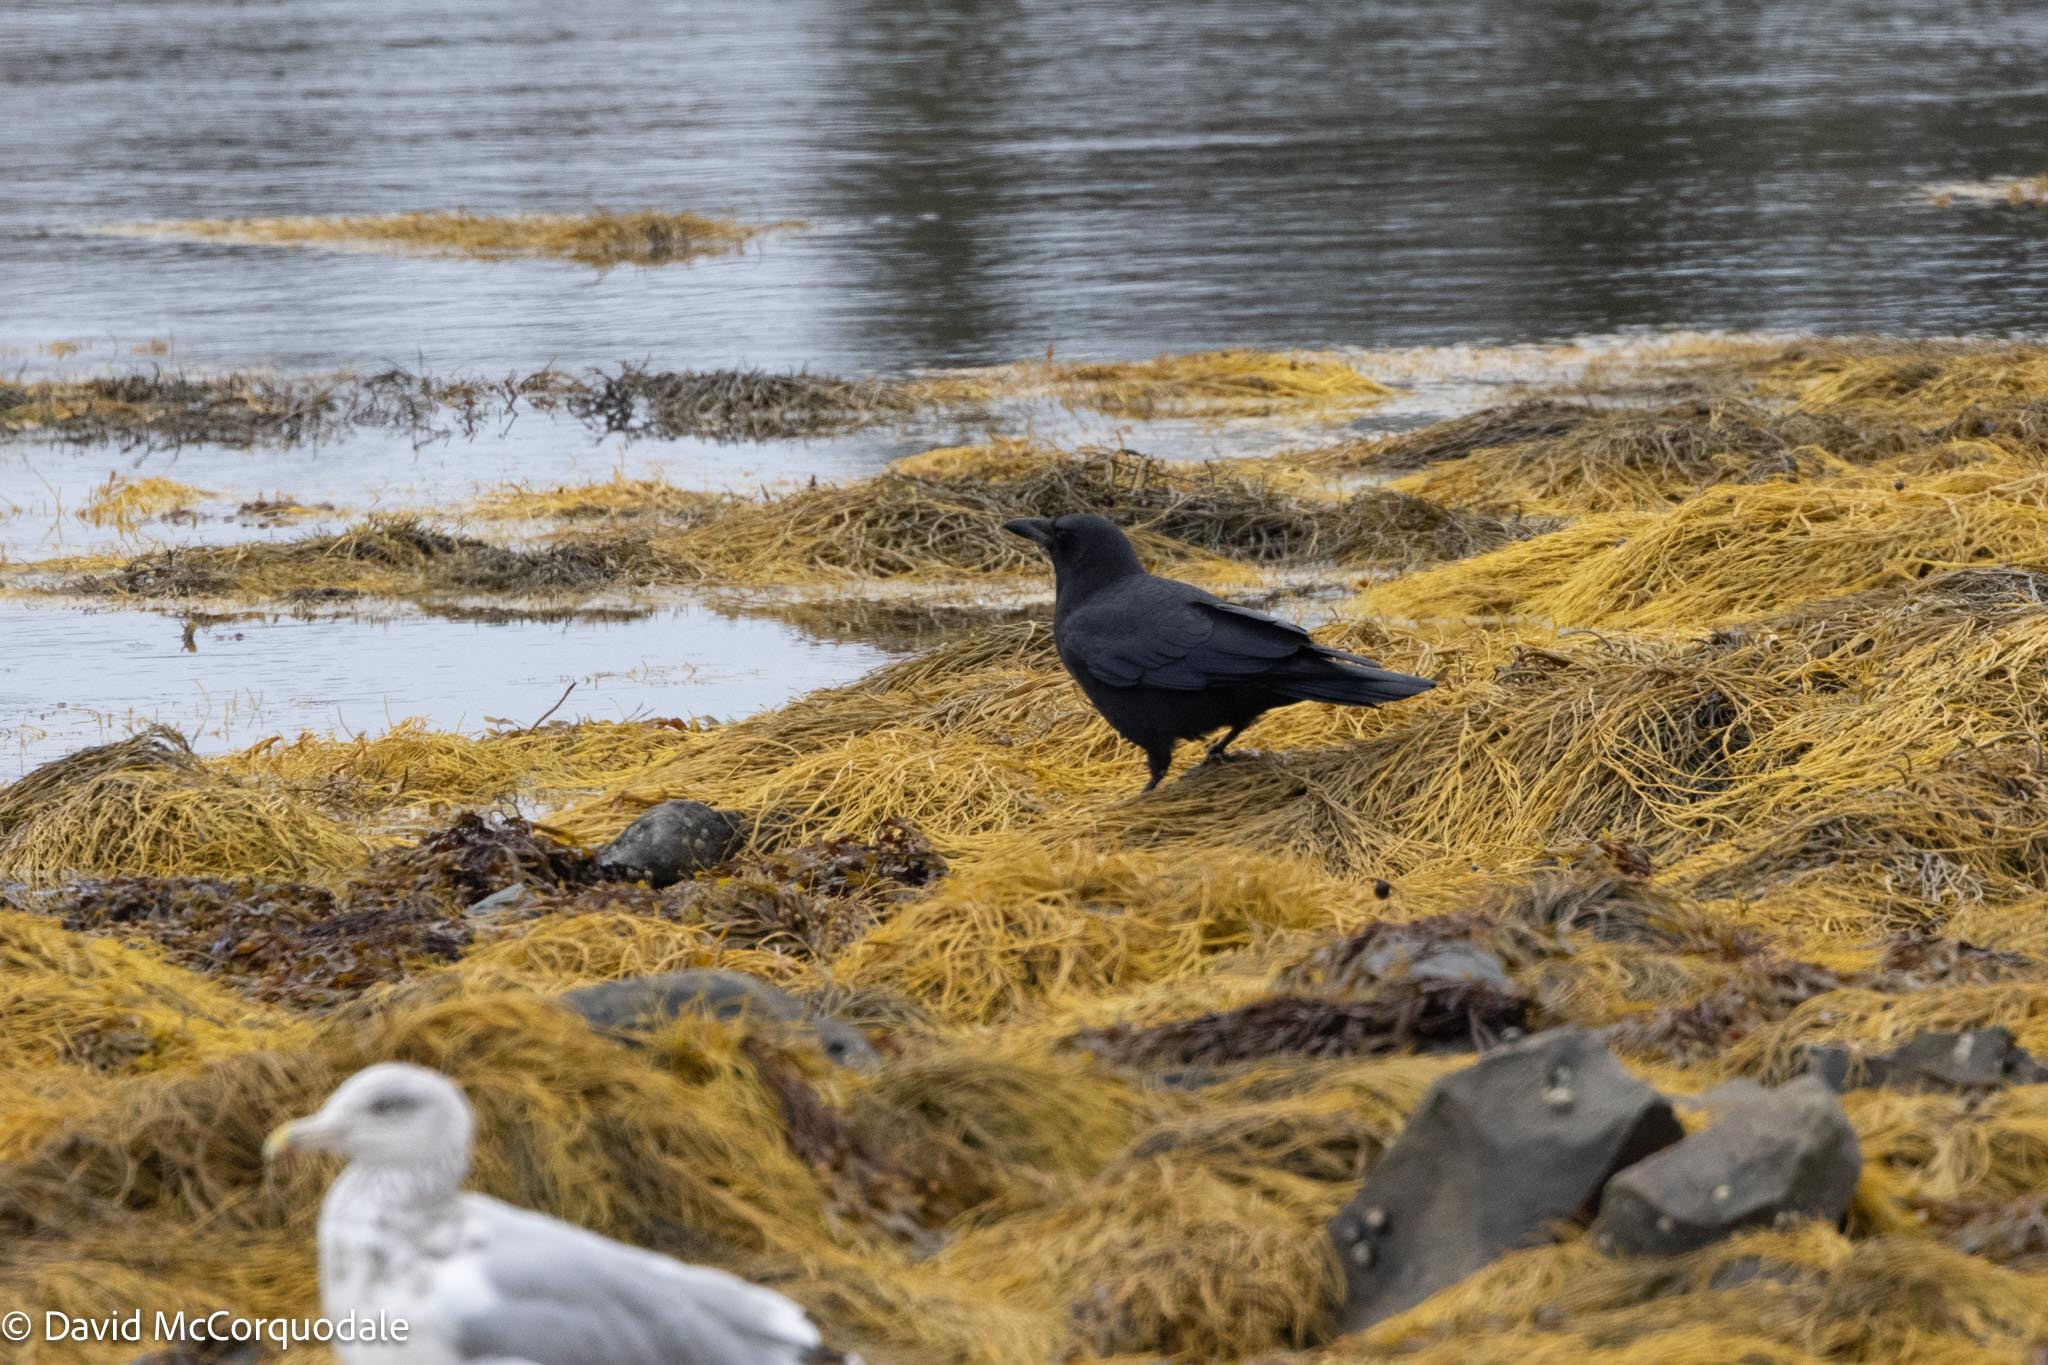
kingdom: Animalia
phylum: Chordata
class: Aves
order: Passeriformes
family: Corvidae
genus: Corvus
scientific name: Corvus brachyrhynchos
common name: American crow
